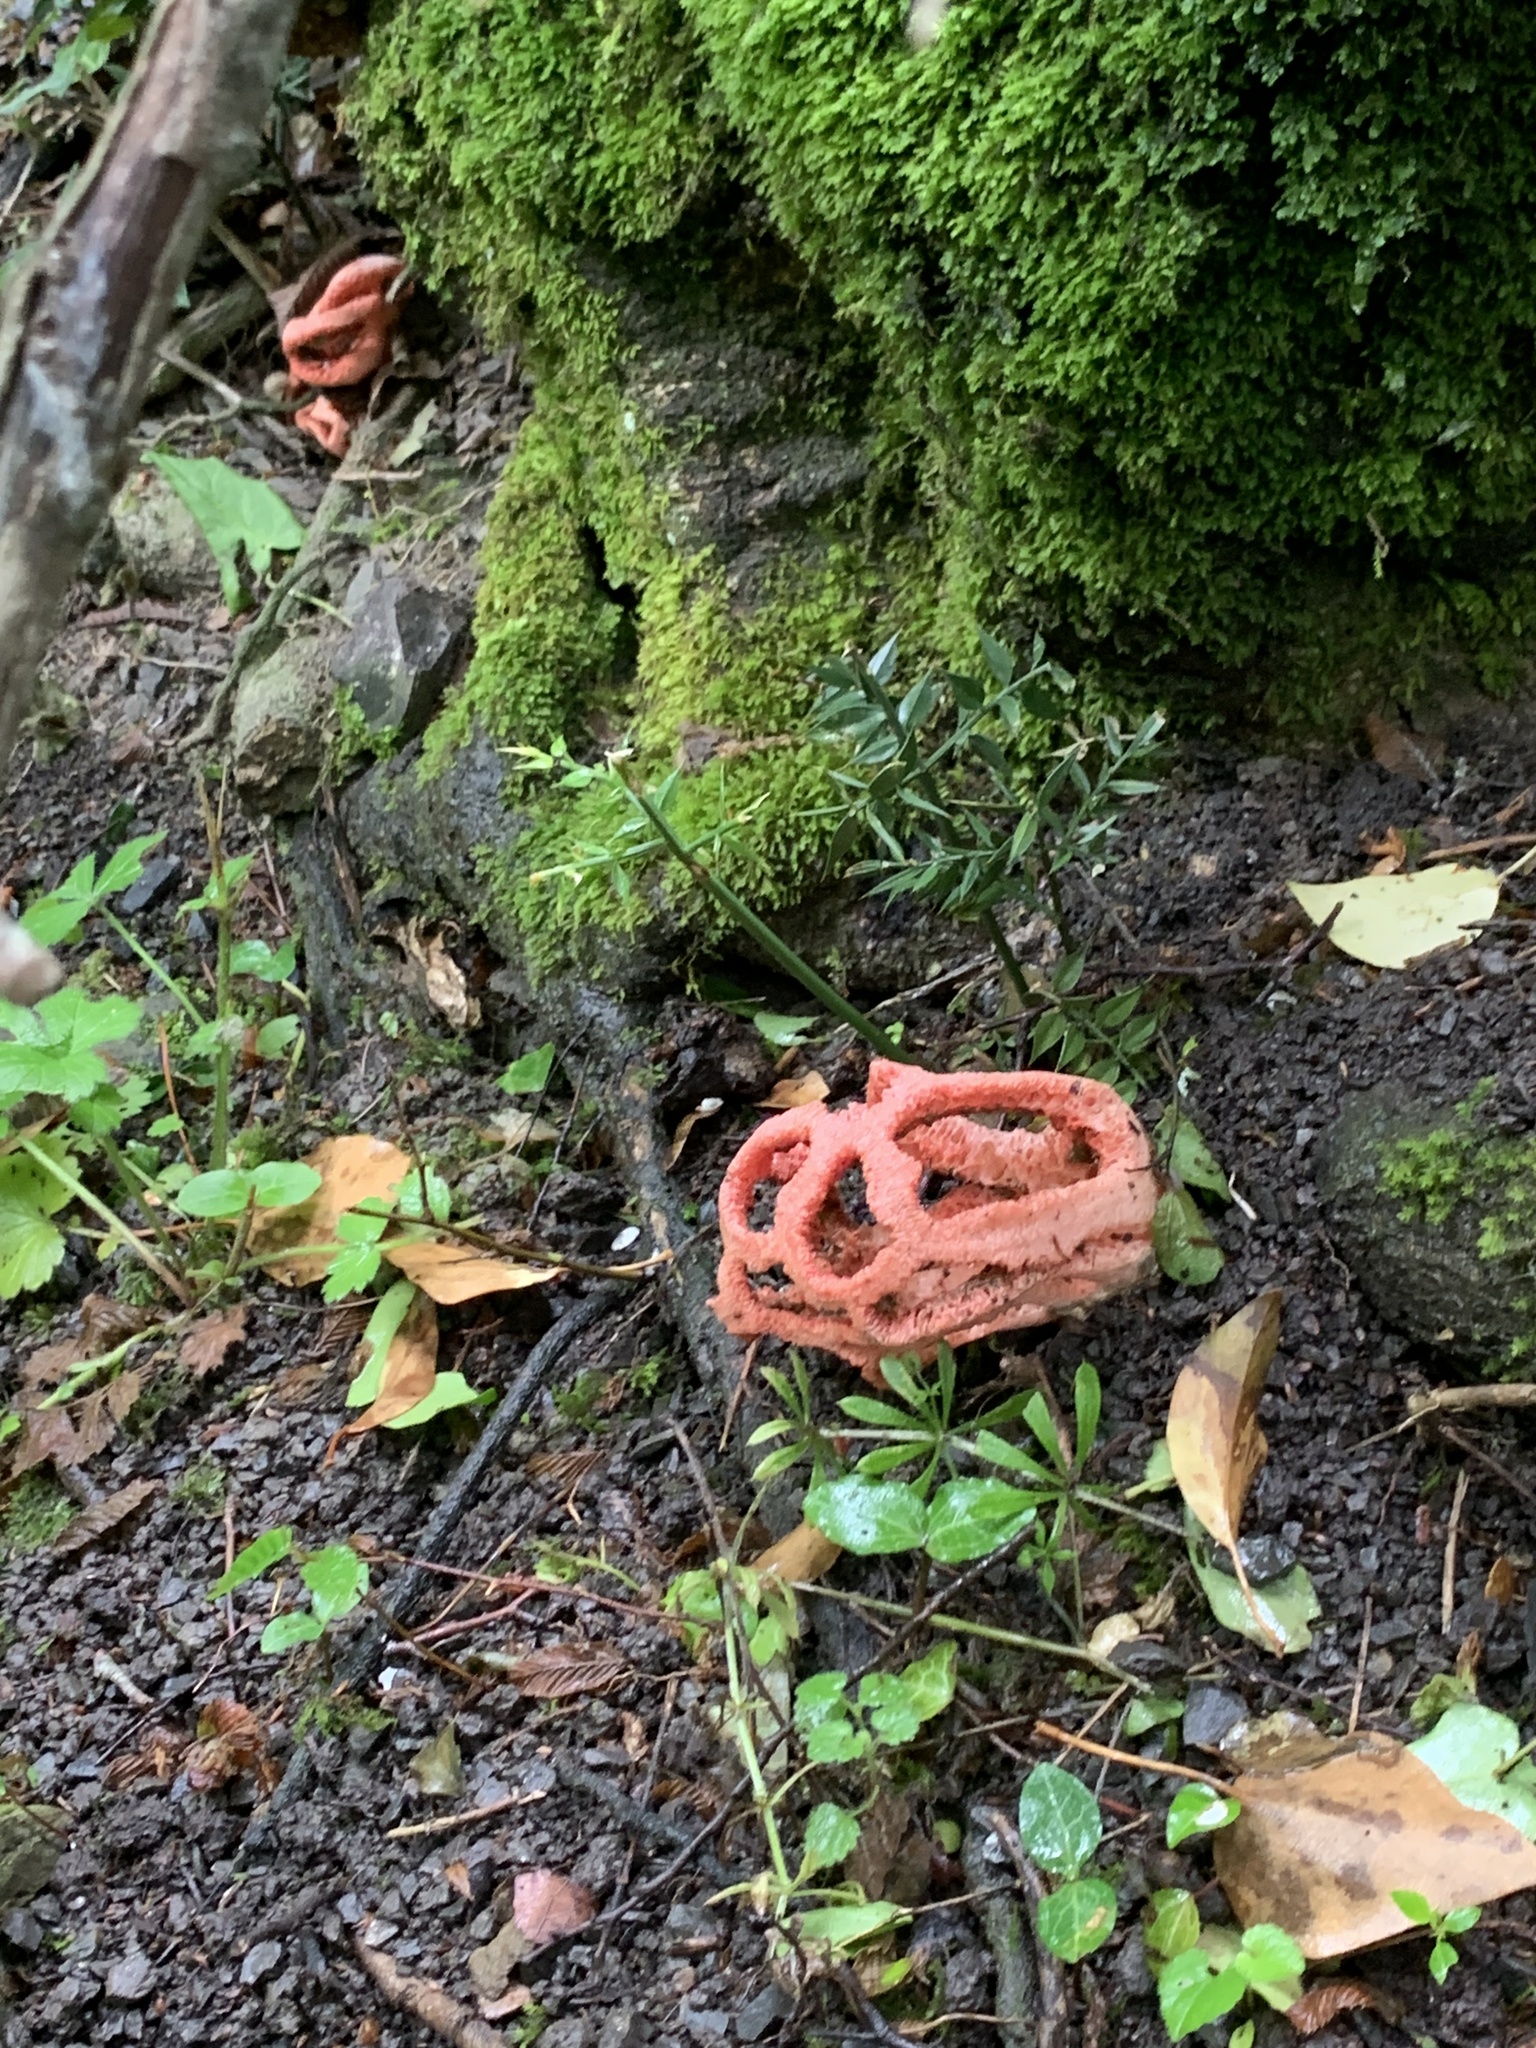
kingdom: Fungi
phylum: Basidiomycota
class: Agaricomycetes
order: Phallales
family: Phallaceae
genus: Clathrus
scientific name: Clathrus ruber
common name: Red cage
